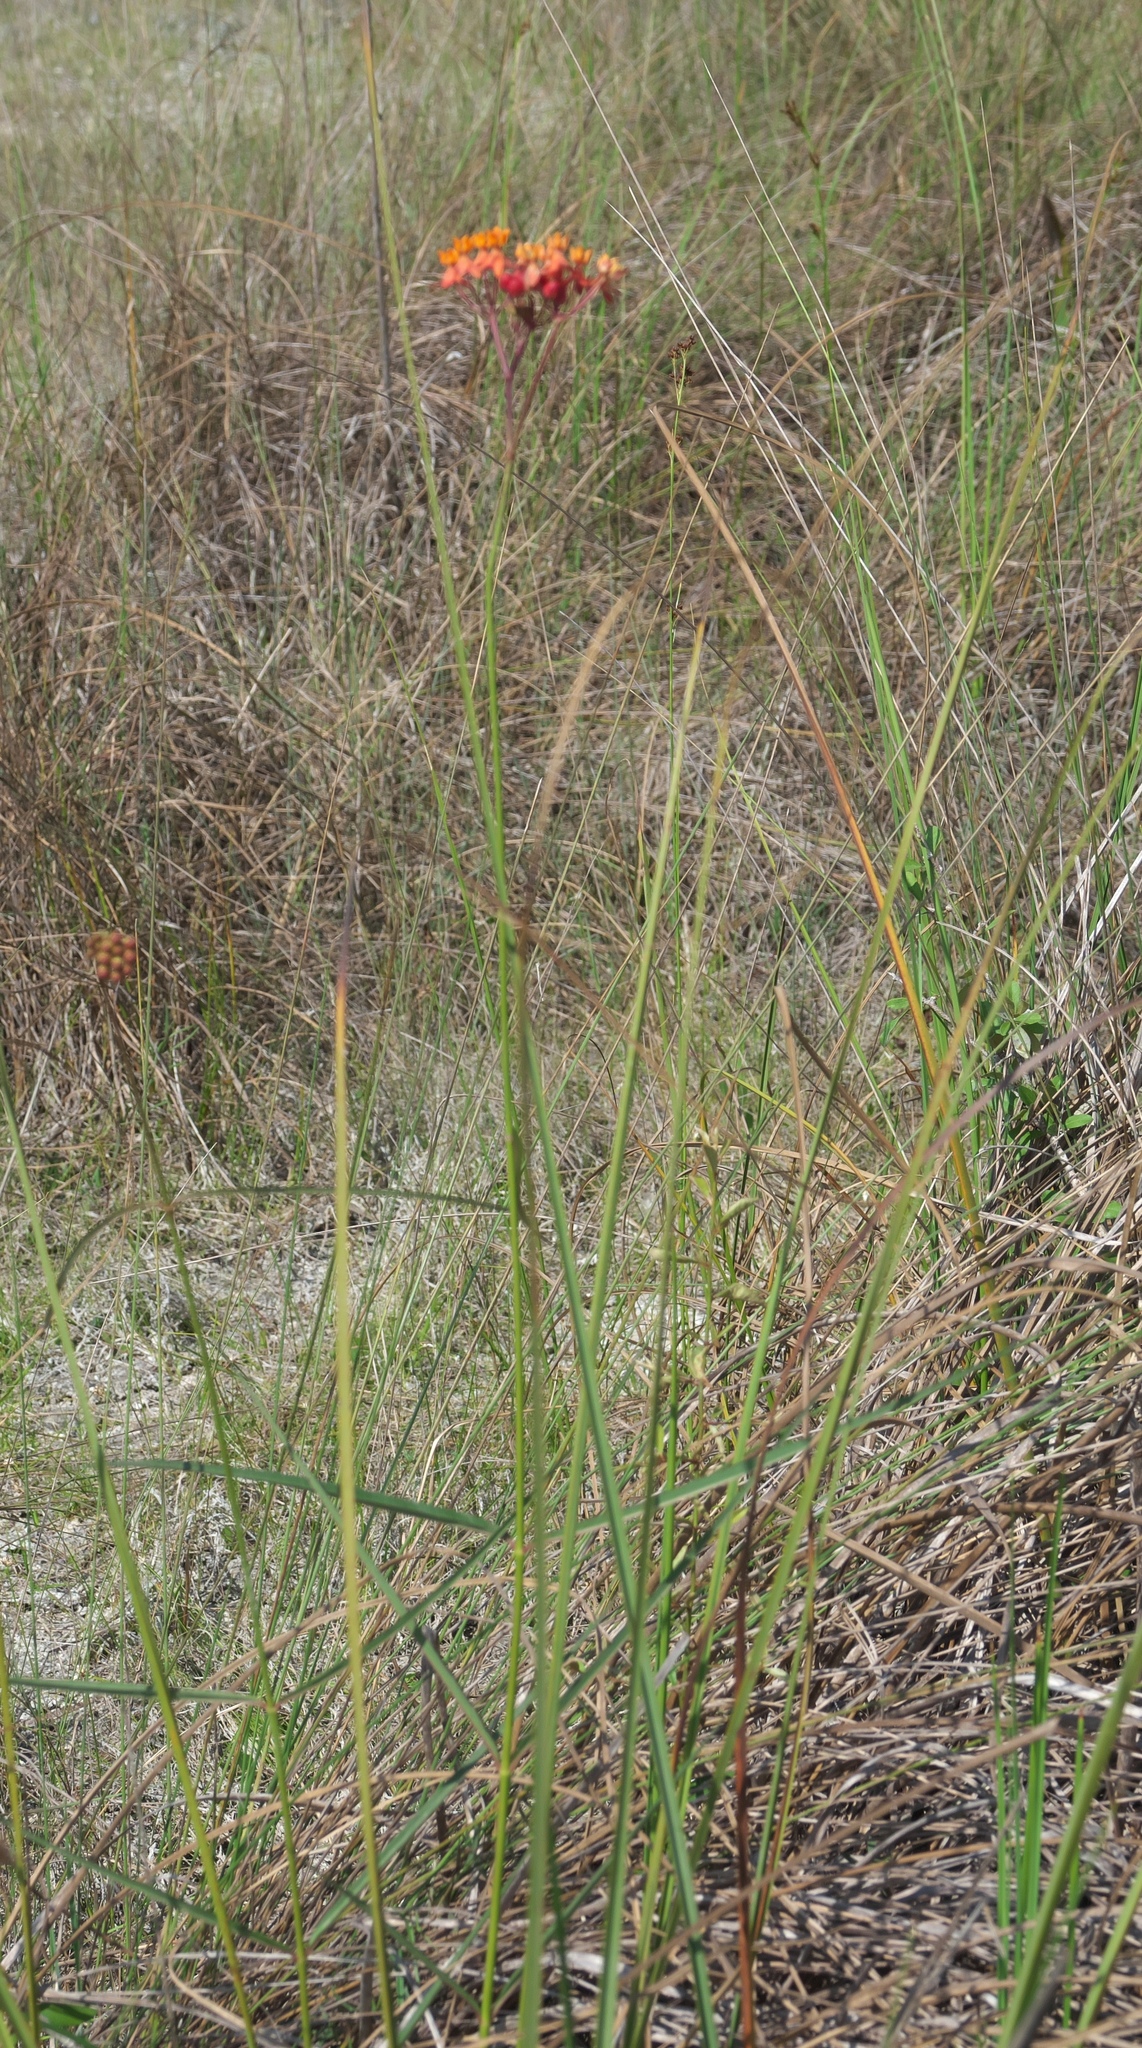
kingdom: Plantae
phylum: Tracheophyta
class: Magnoliopsida
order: Gentianales
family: Apocynaceae
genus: Asclepias
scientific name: Asclepias lanceolata
